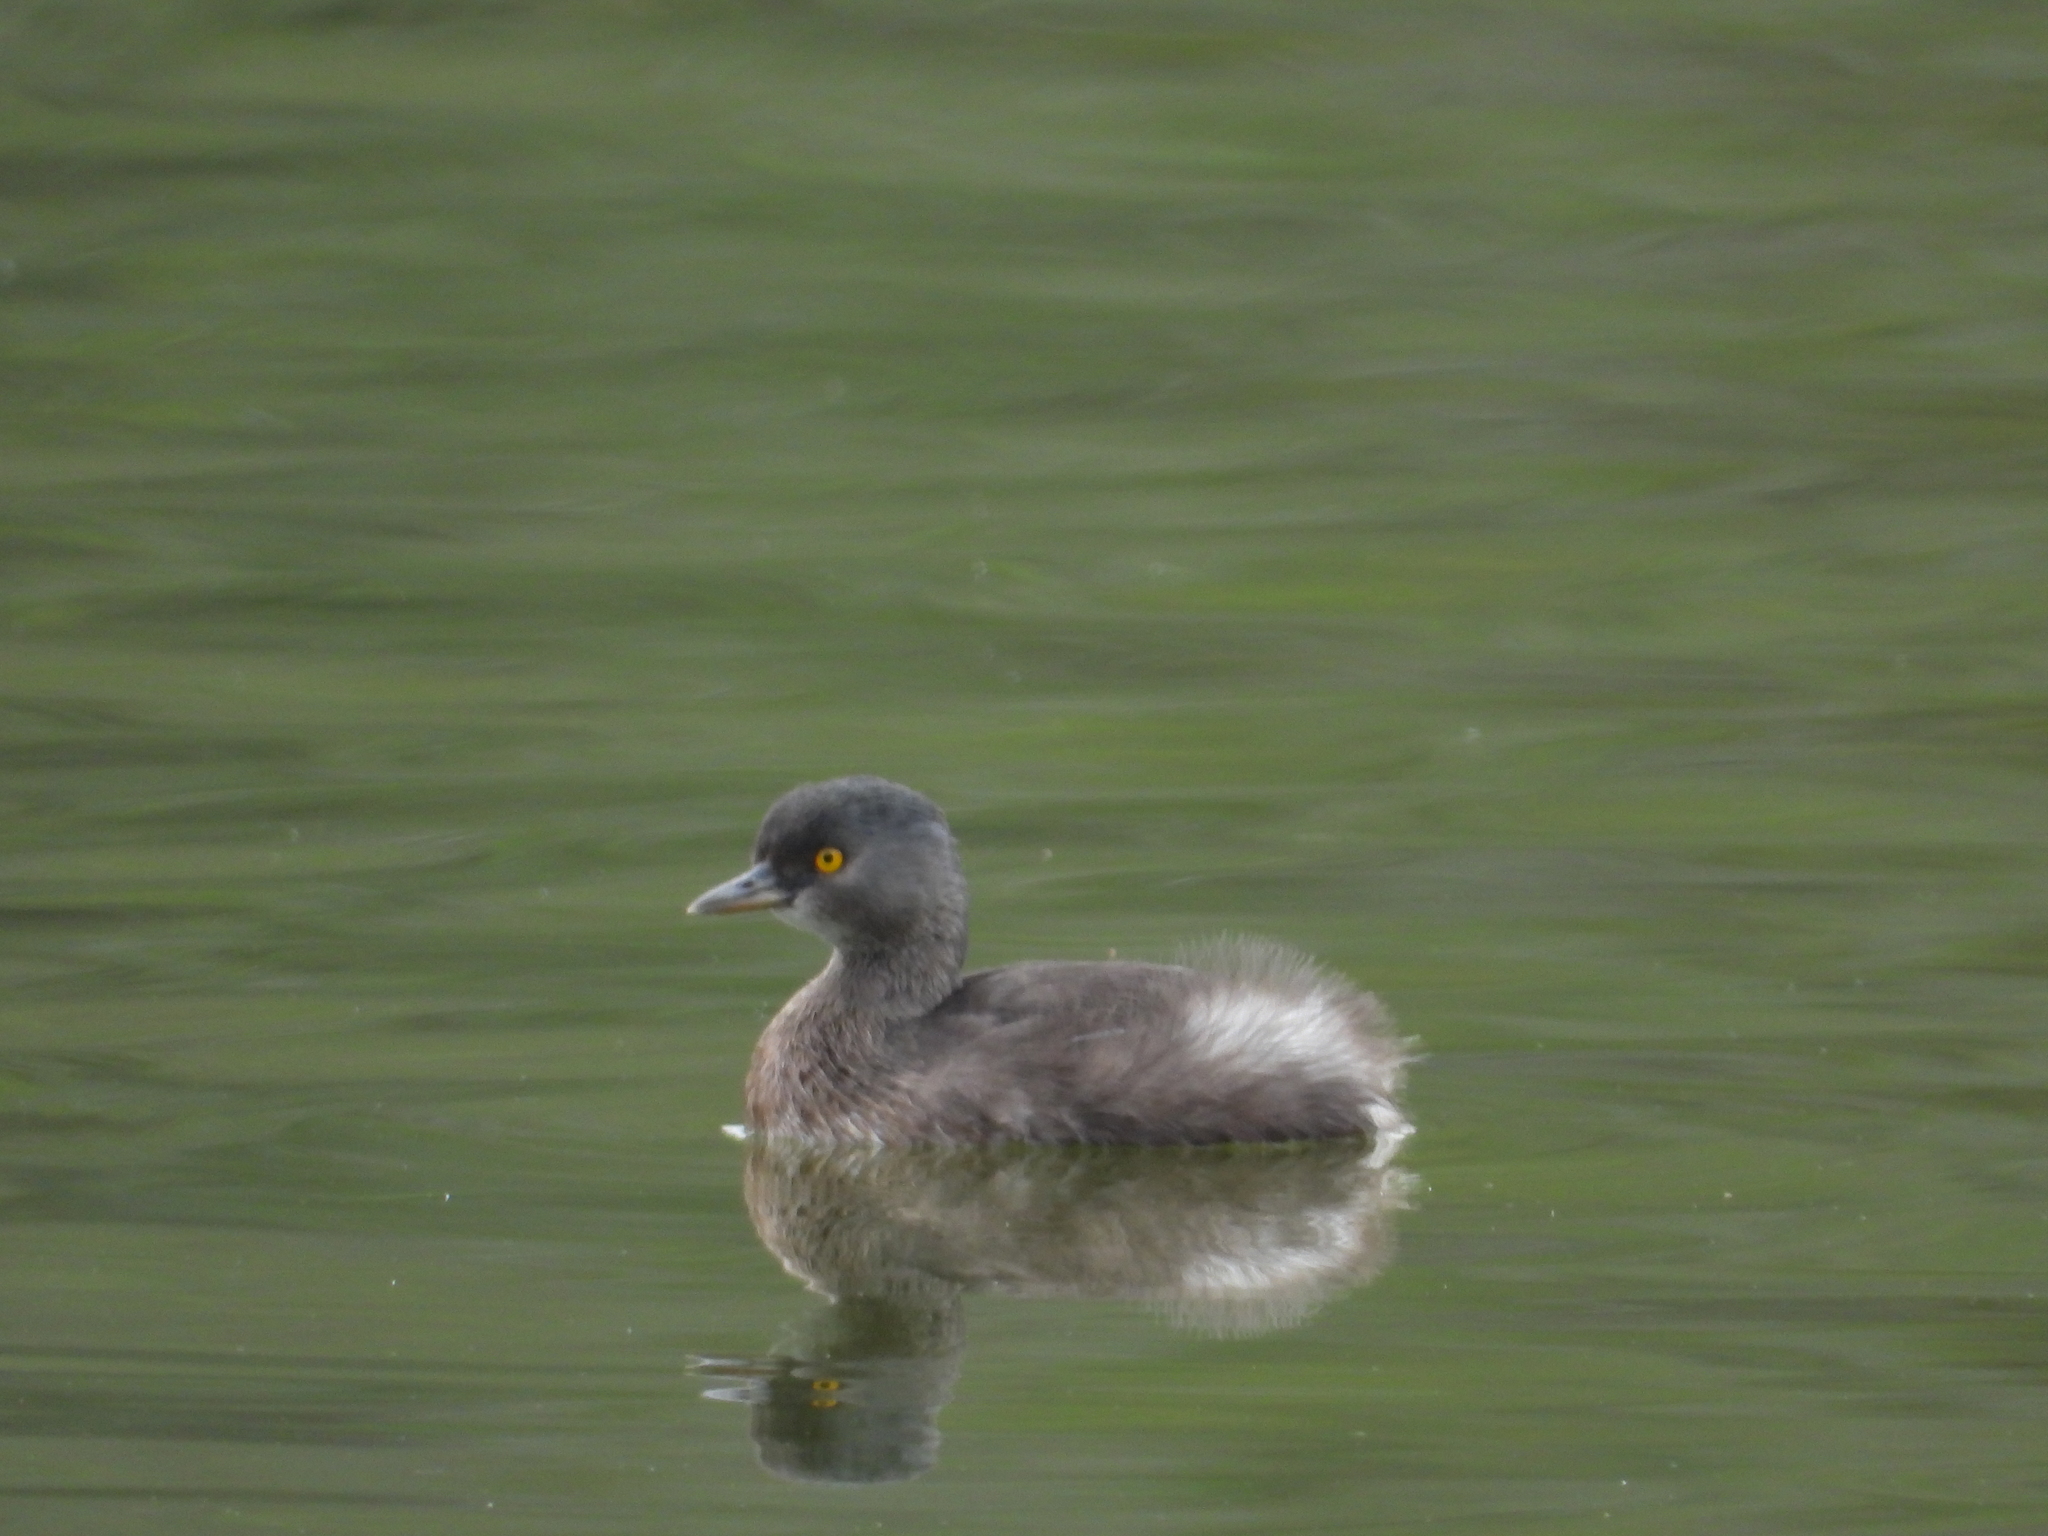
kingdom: Animalia
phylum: Chordata
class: Aves
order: Podicipediformes
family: Podicipedidae
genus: Tachybaptus
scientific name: Tachybaptus dominicus
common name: Least grebe
